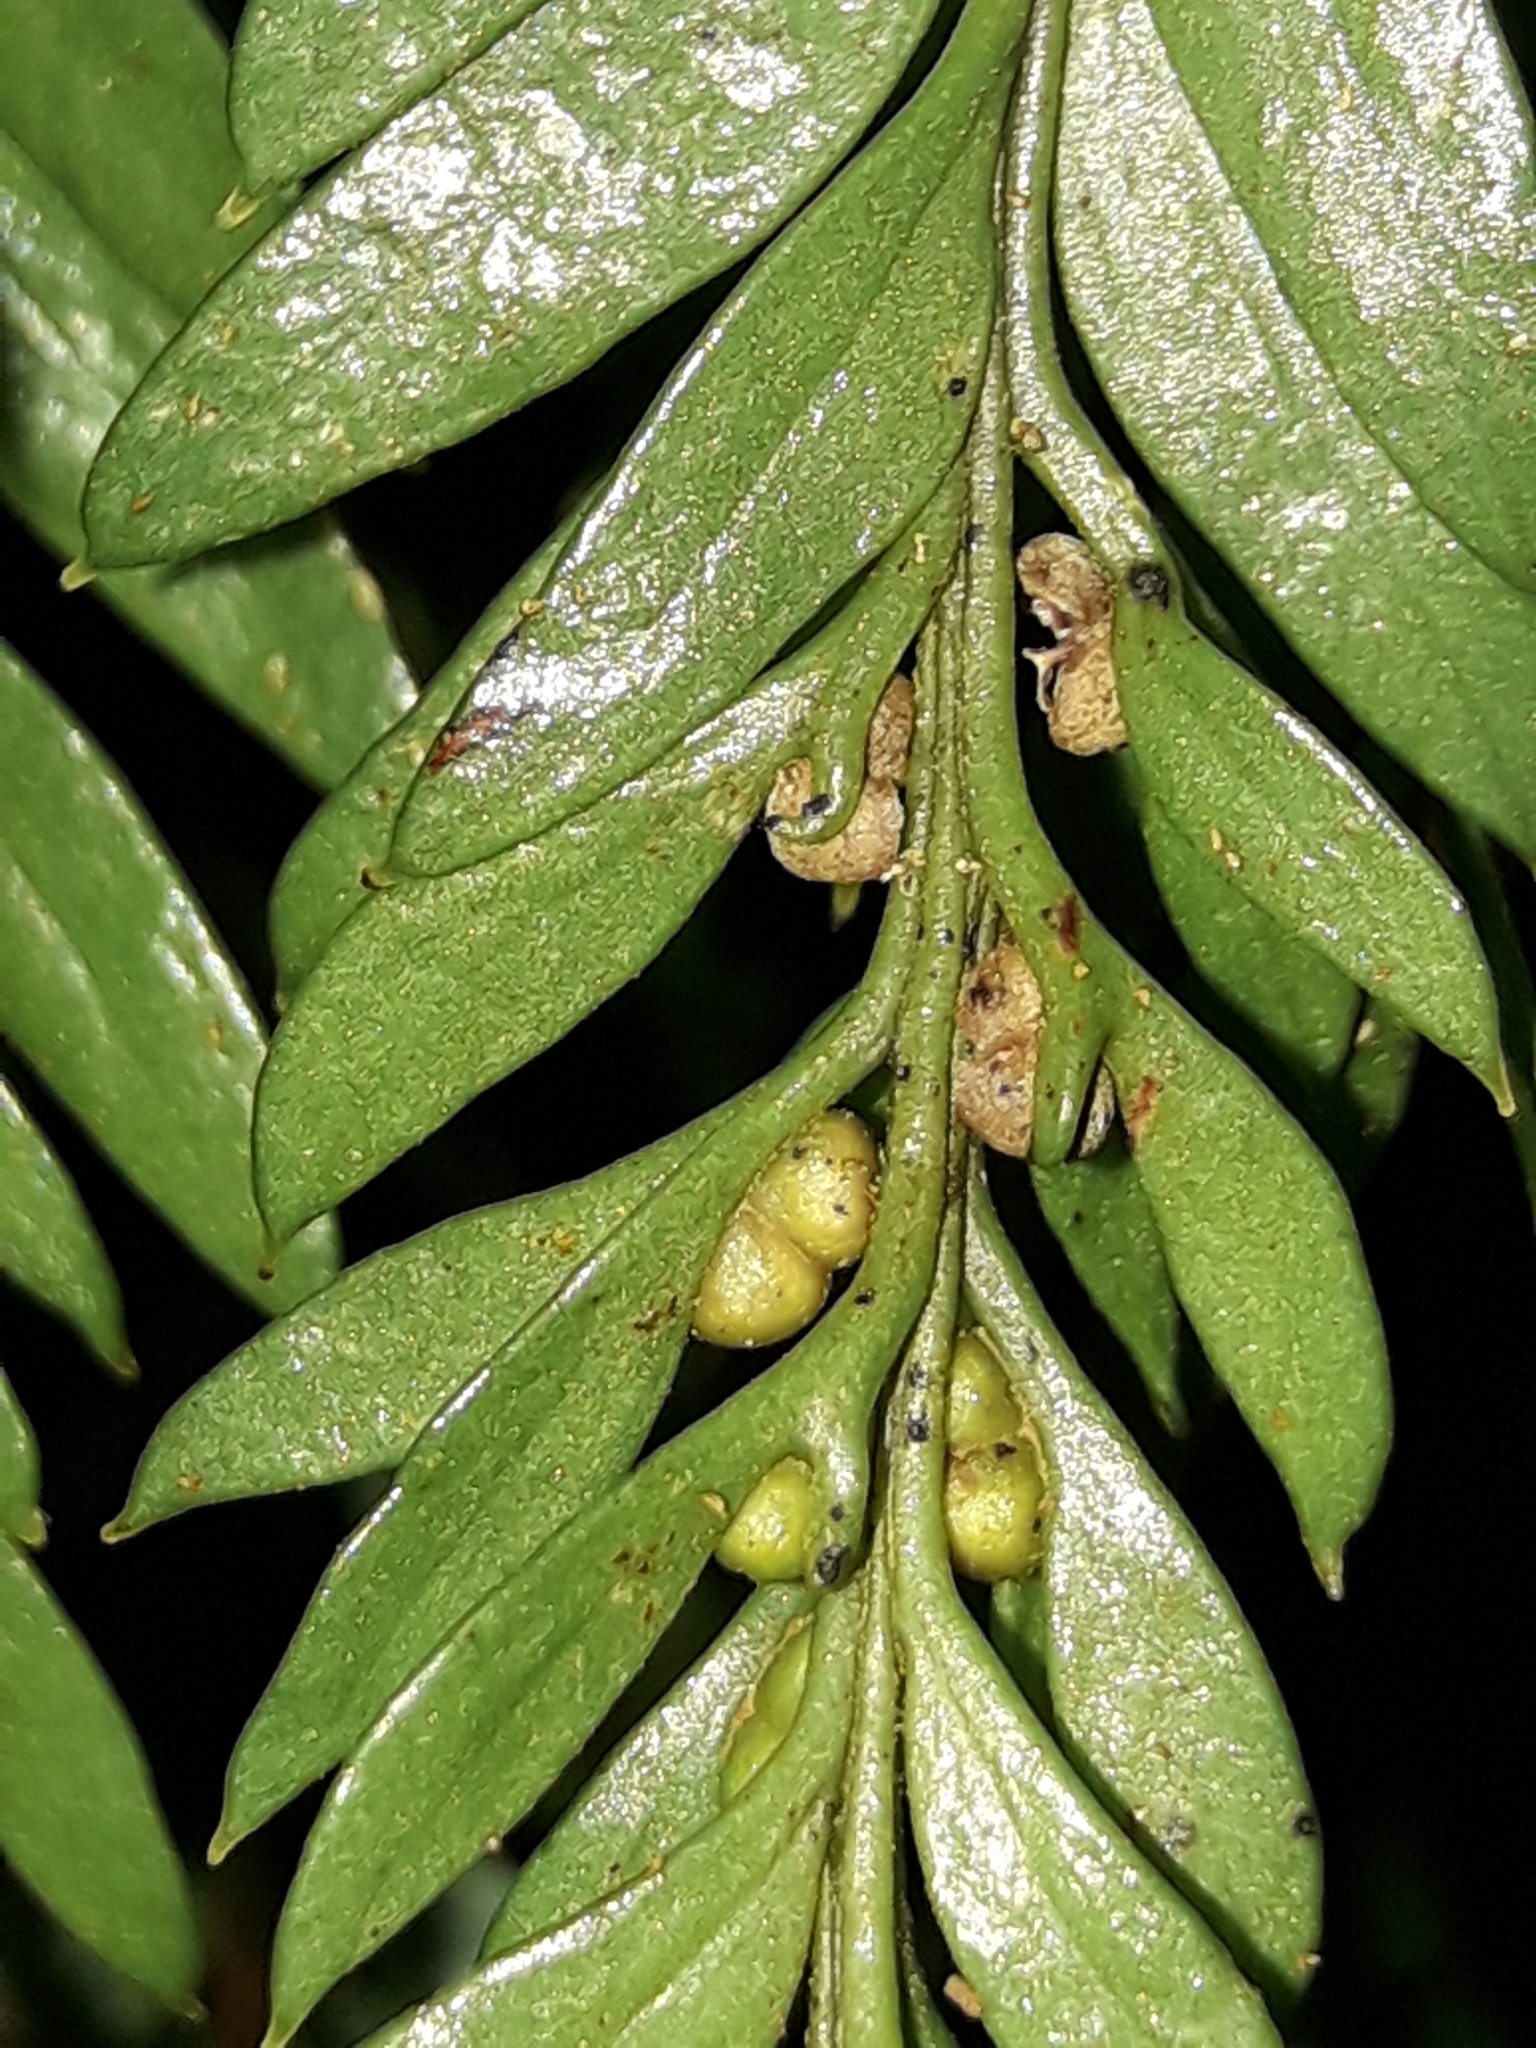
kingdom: Plantae
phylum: Tracheophyta
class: Polypodiopsida
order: Psilotales
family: Psilotaceae
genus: Tmesipteris
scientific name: Tmesipteris norfolkensis
